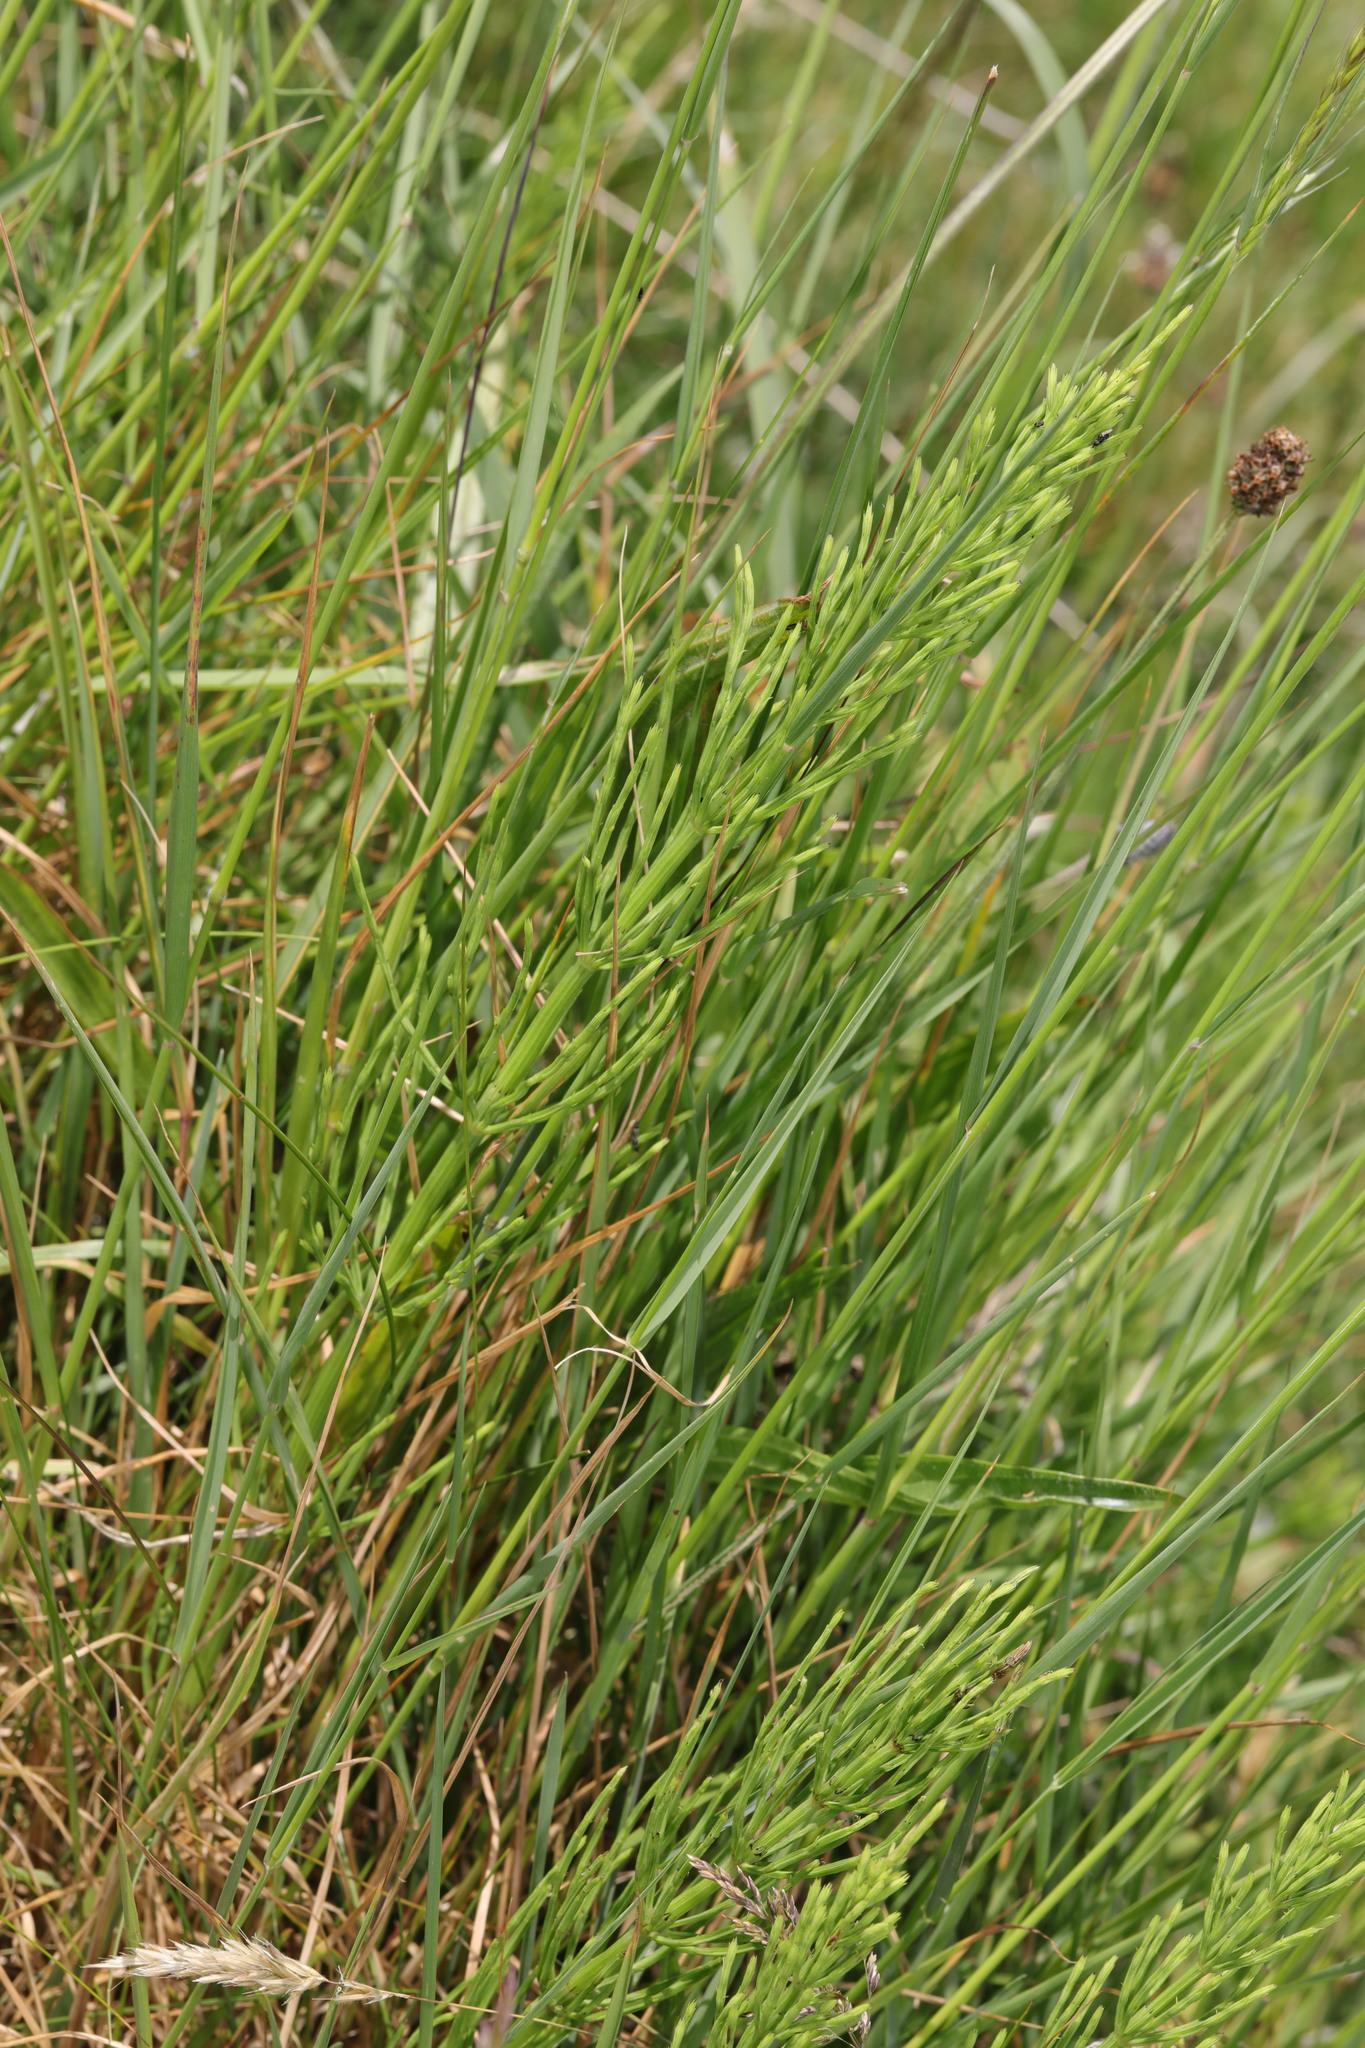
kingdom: Plantae
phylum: Tracheophyta
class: Polypodiopsida
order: Equisetales
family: Equisetaceae
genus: Equisetum
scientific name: Equisetum arvense
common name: Field horsetail
